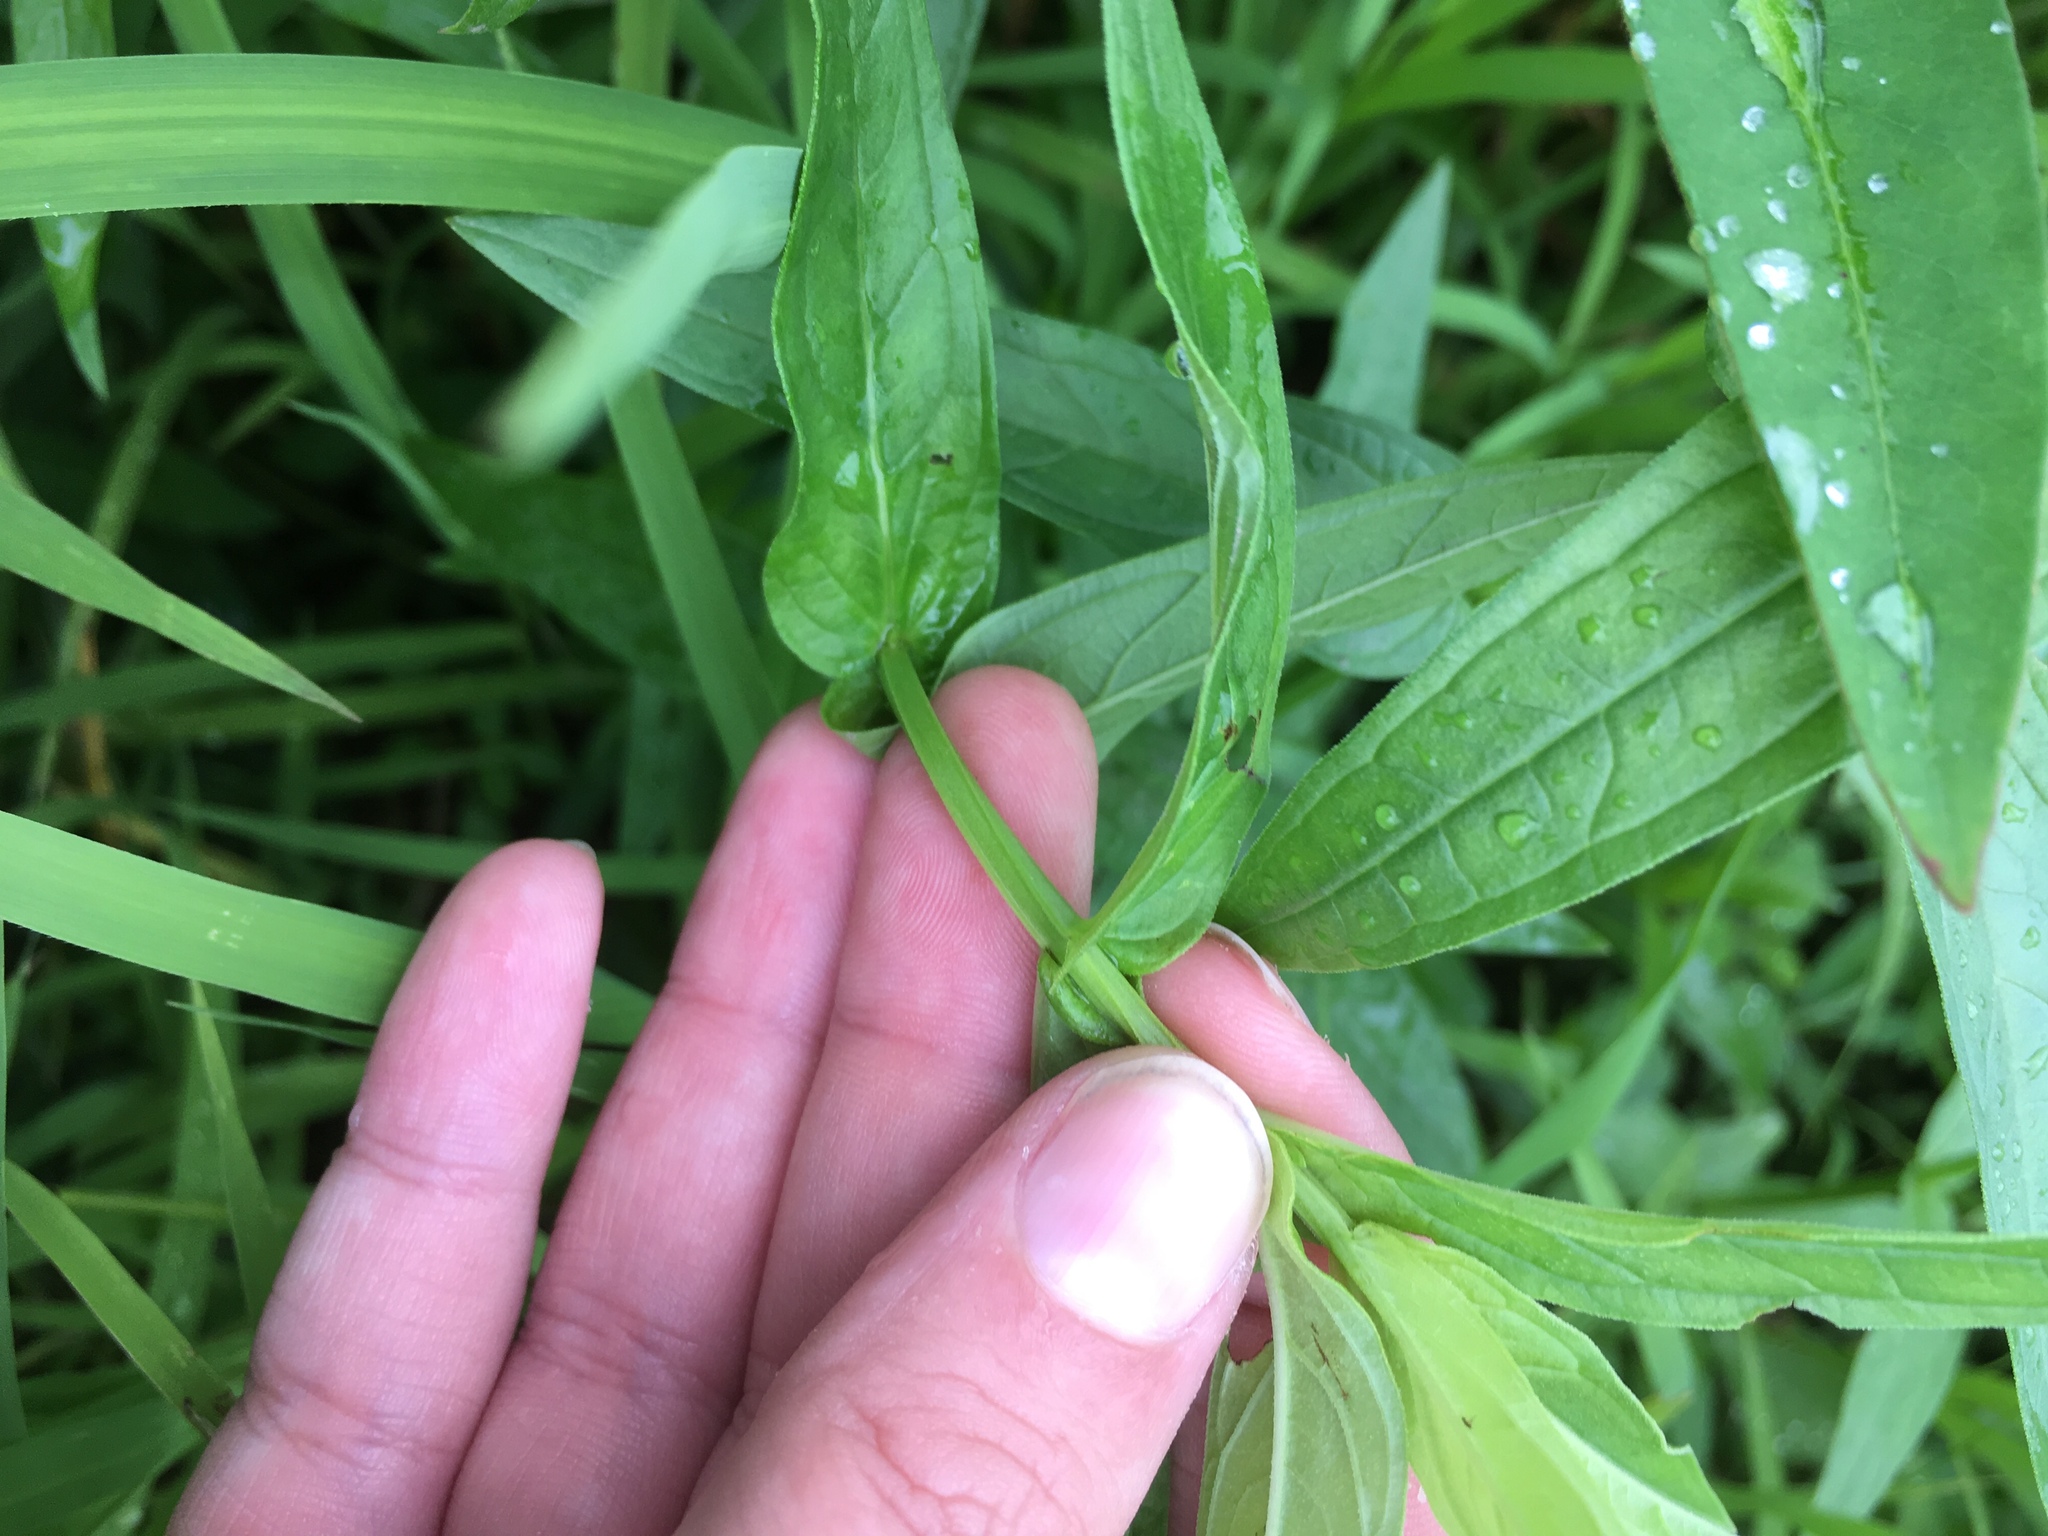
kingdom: Plantae
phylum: Tracheophyta
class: Magnoliopsida
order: Myrtales
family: Lythraceae
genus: Lythrum
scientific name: Lythrum salicaria
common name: Purple loosestrife
